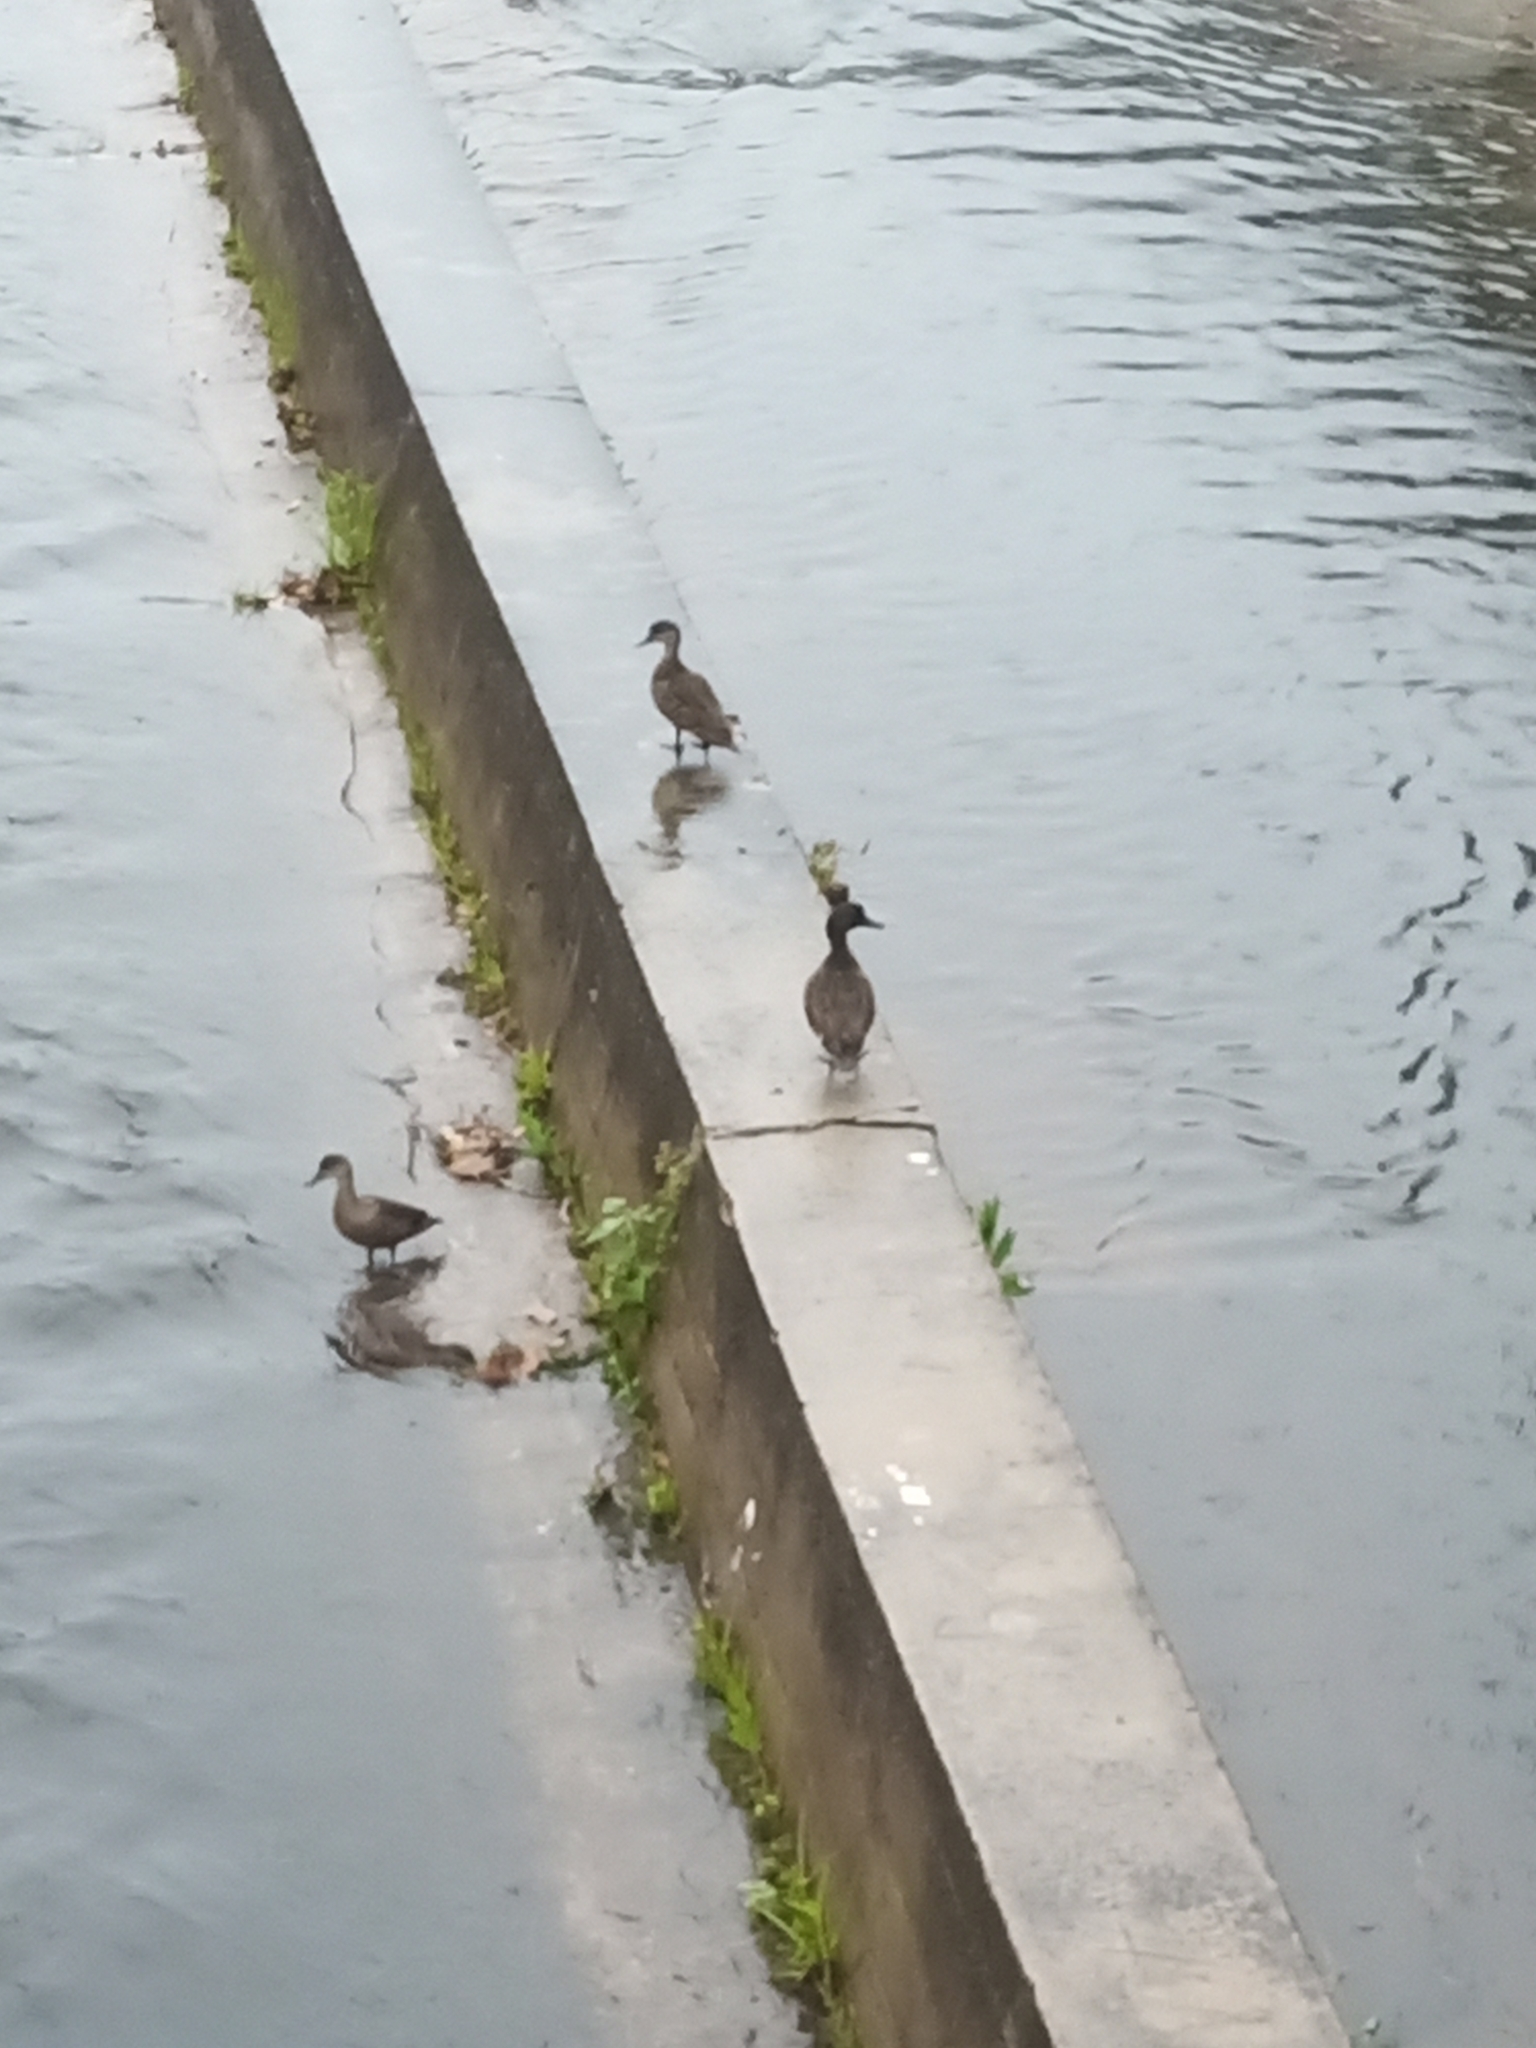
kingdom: Animalia
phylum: Chordata
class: Aves
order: Anseriformes
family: Anatidae
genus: Anas
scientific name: Anas castanea
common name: Chestnut teal
